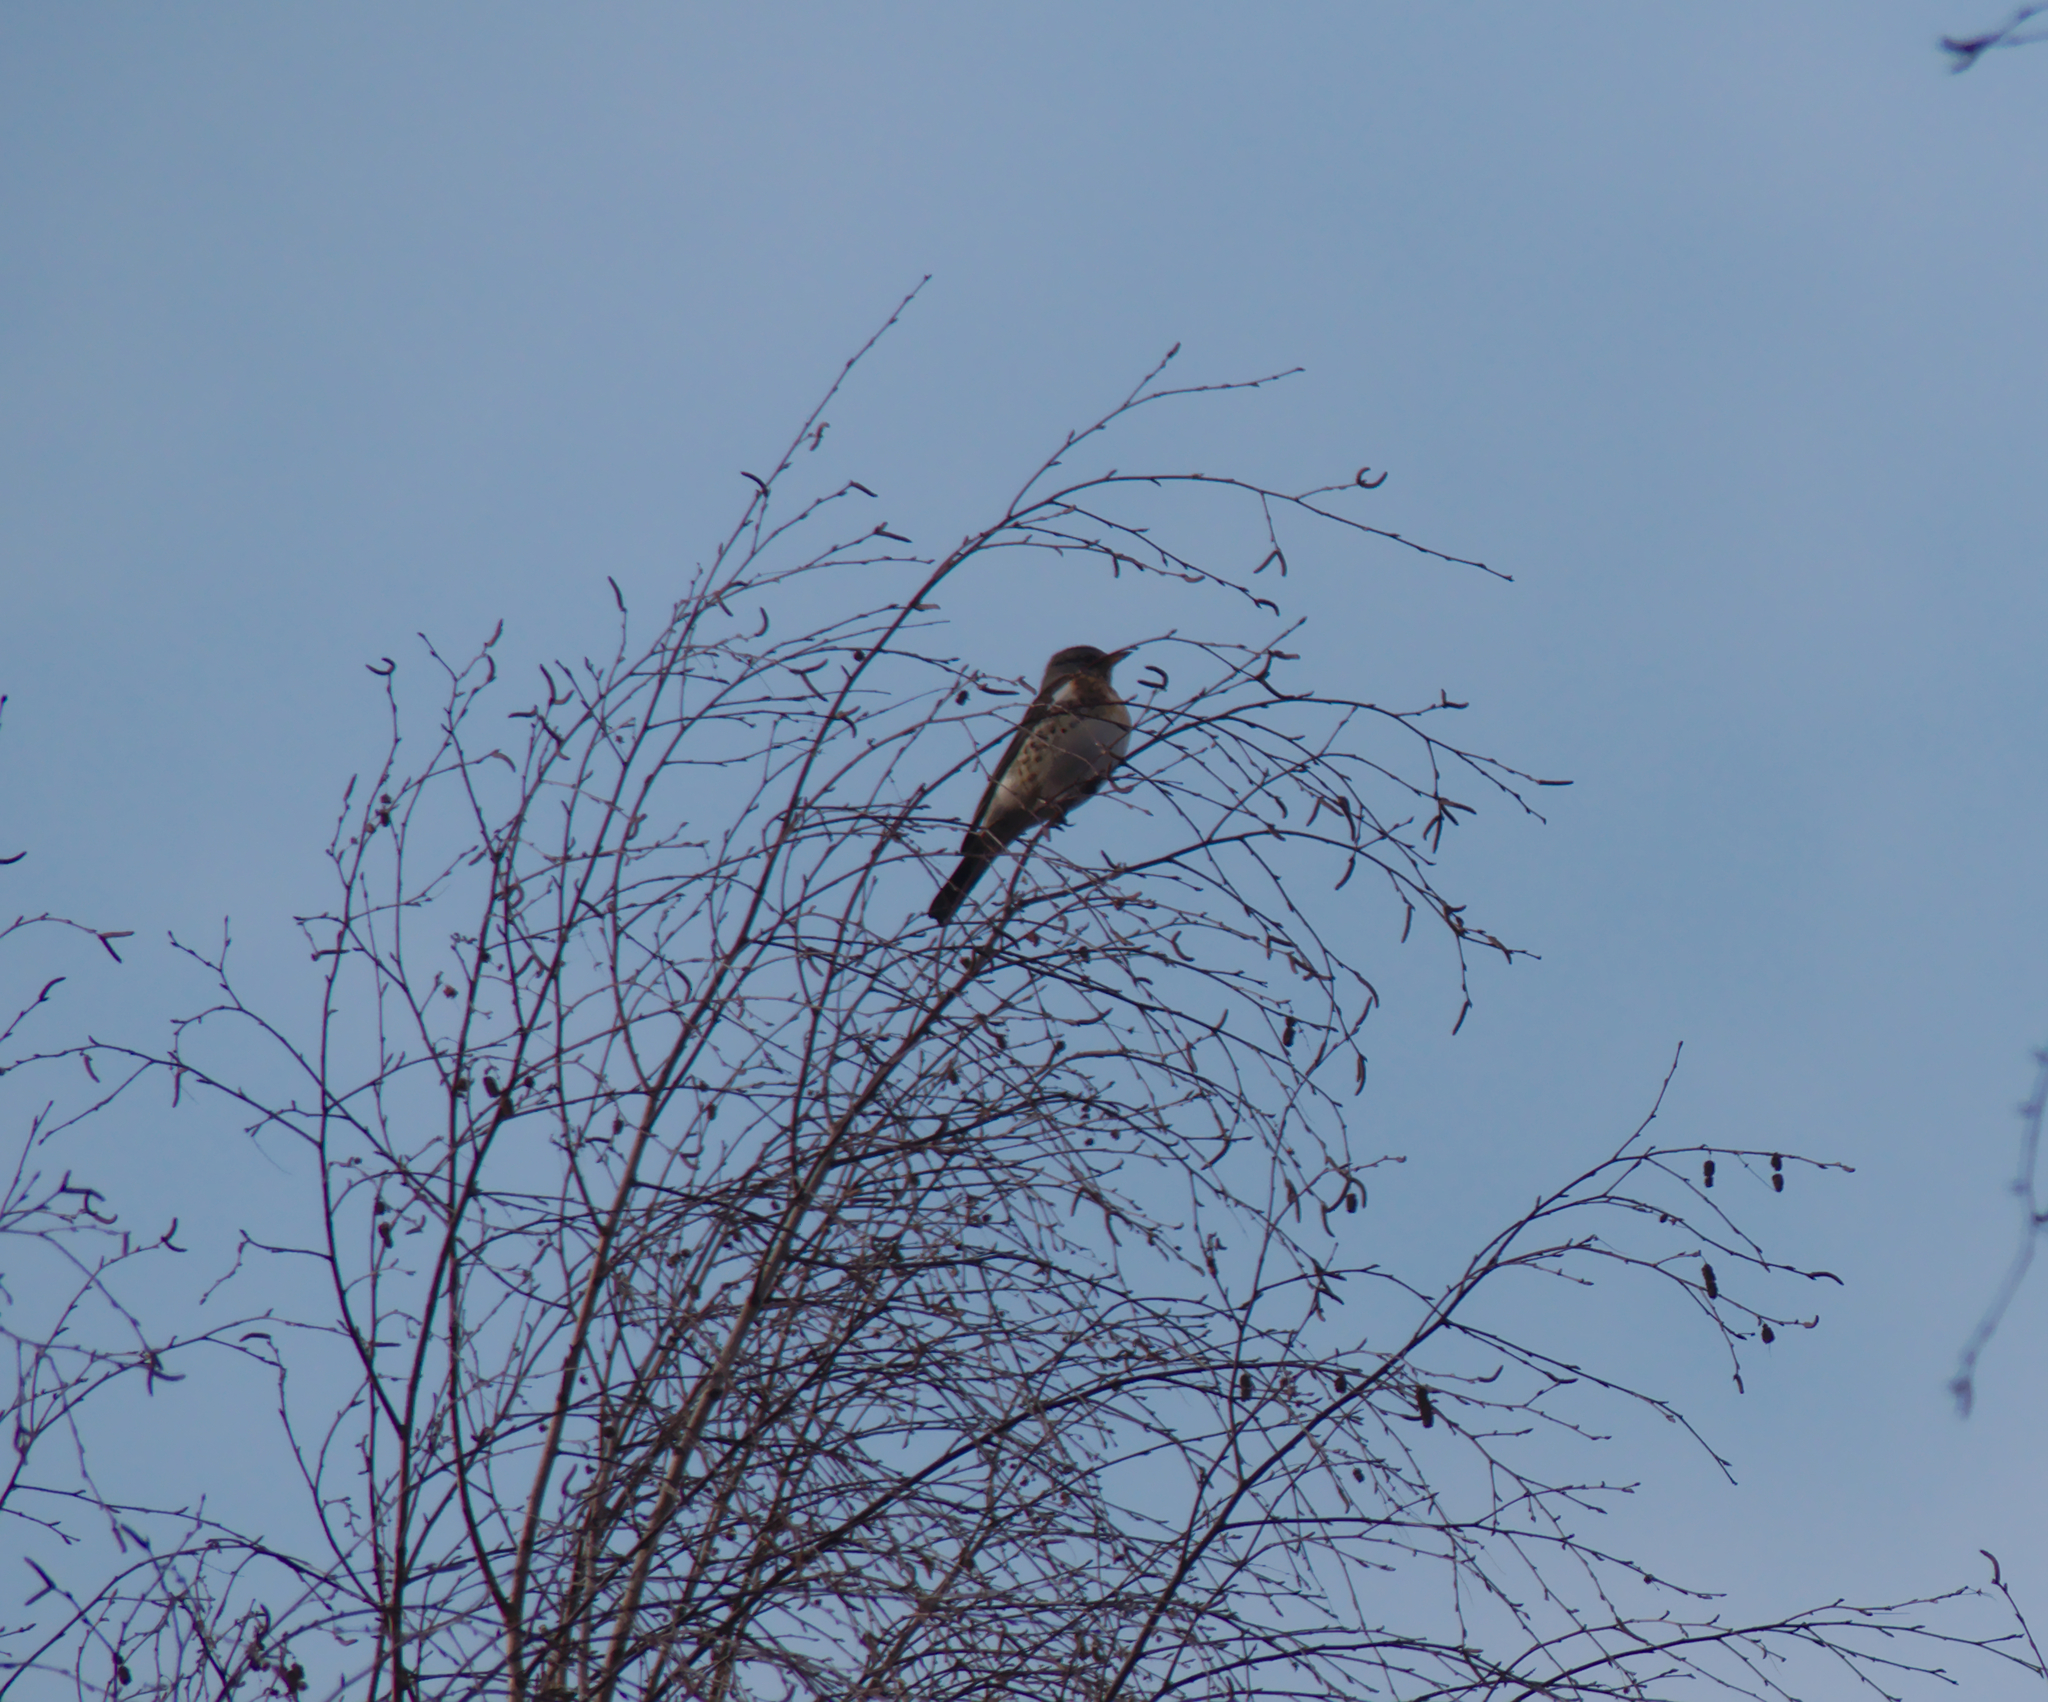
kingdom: Animalia
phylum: Chordata
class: Aves
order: Passeriformes
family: Turdidae
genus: Turdus
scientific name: Turdus pilaris
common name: Fieldfare
